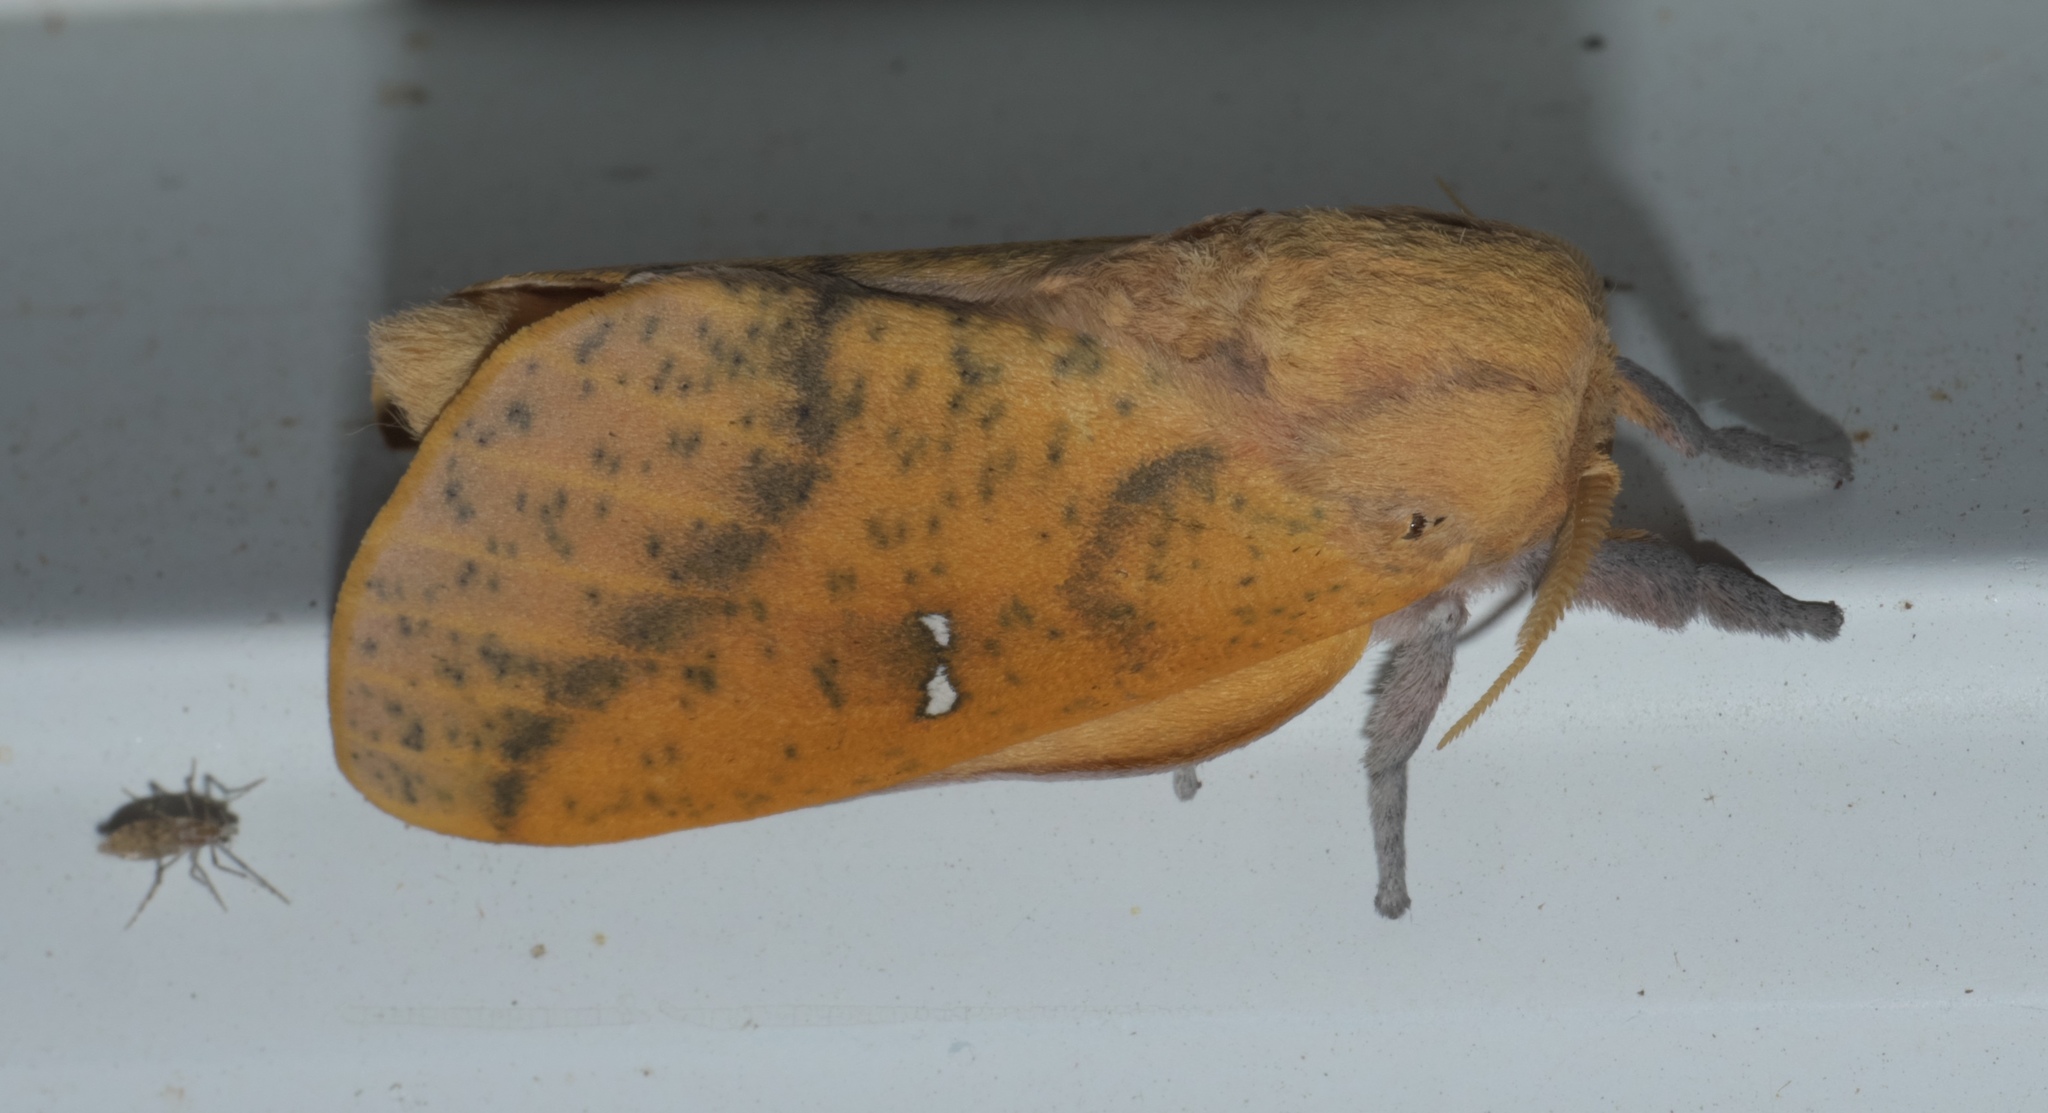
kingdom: Animalia
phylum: Arthropoda
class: Insecta
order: Lepidoptera
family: Saturniidae
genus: Syssphinx
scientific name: Syssphinx bicolor
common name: Honey locust moth
